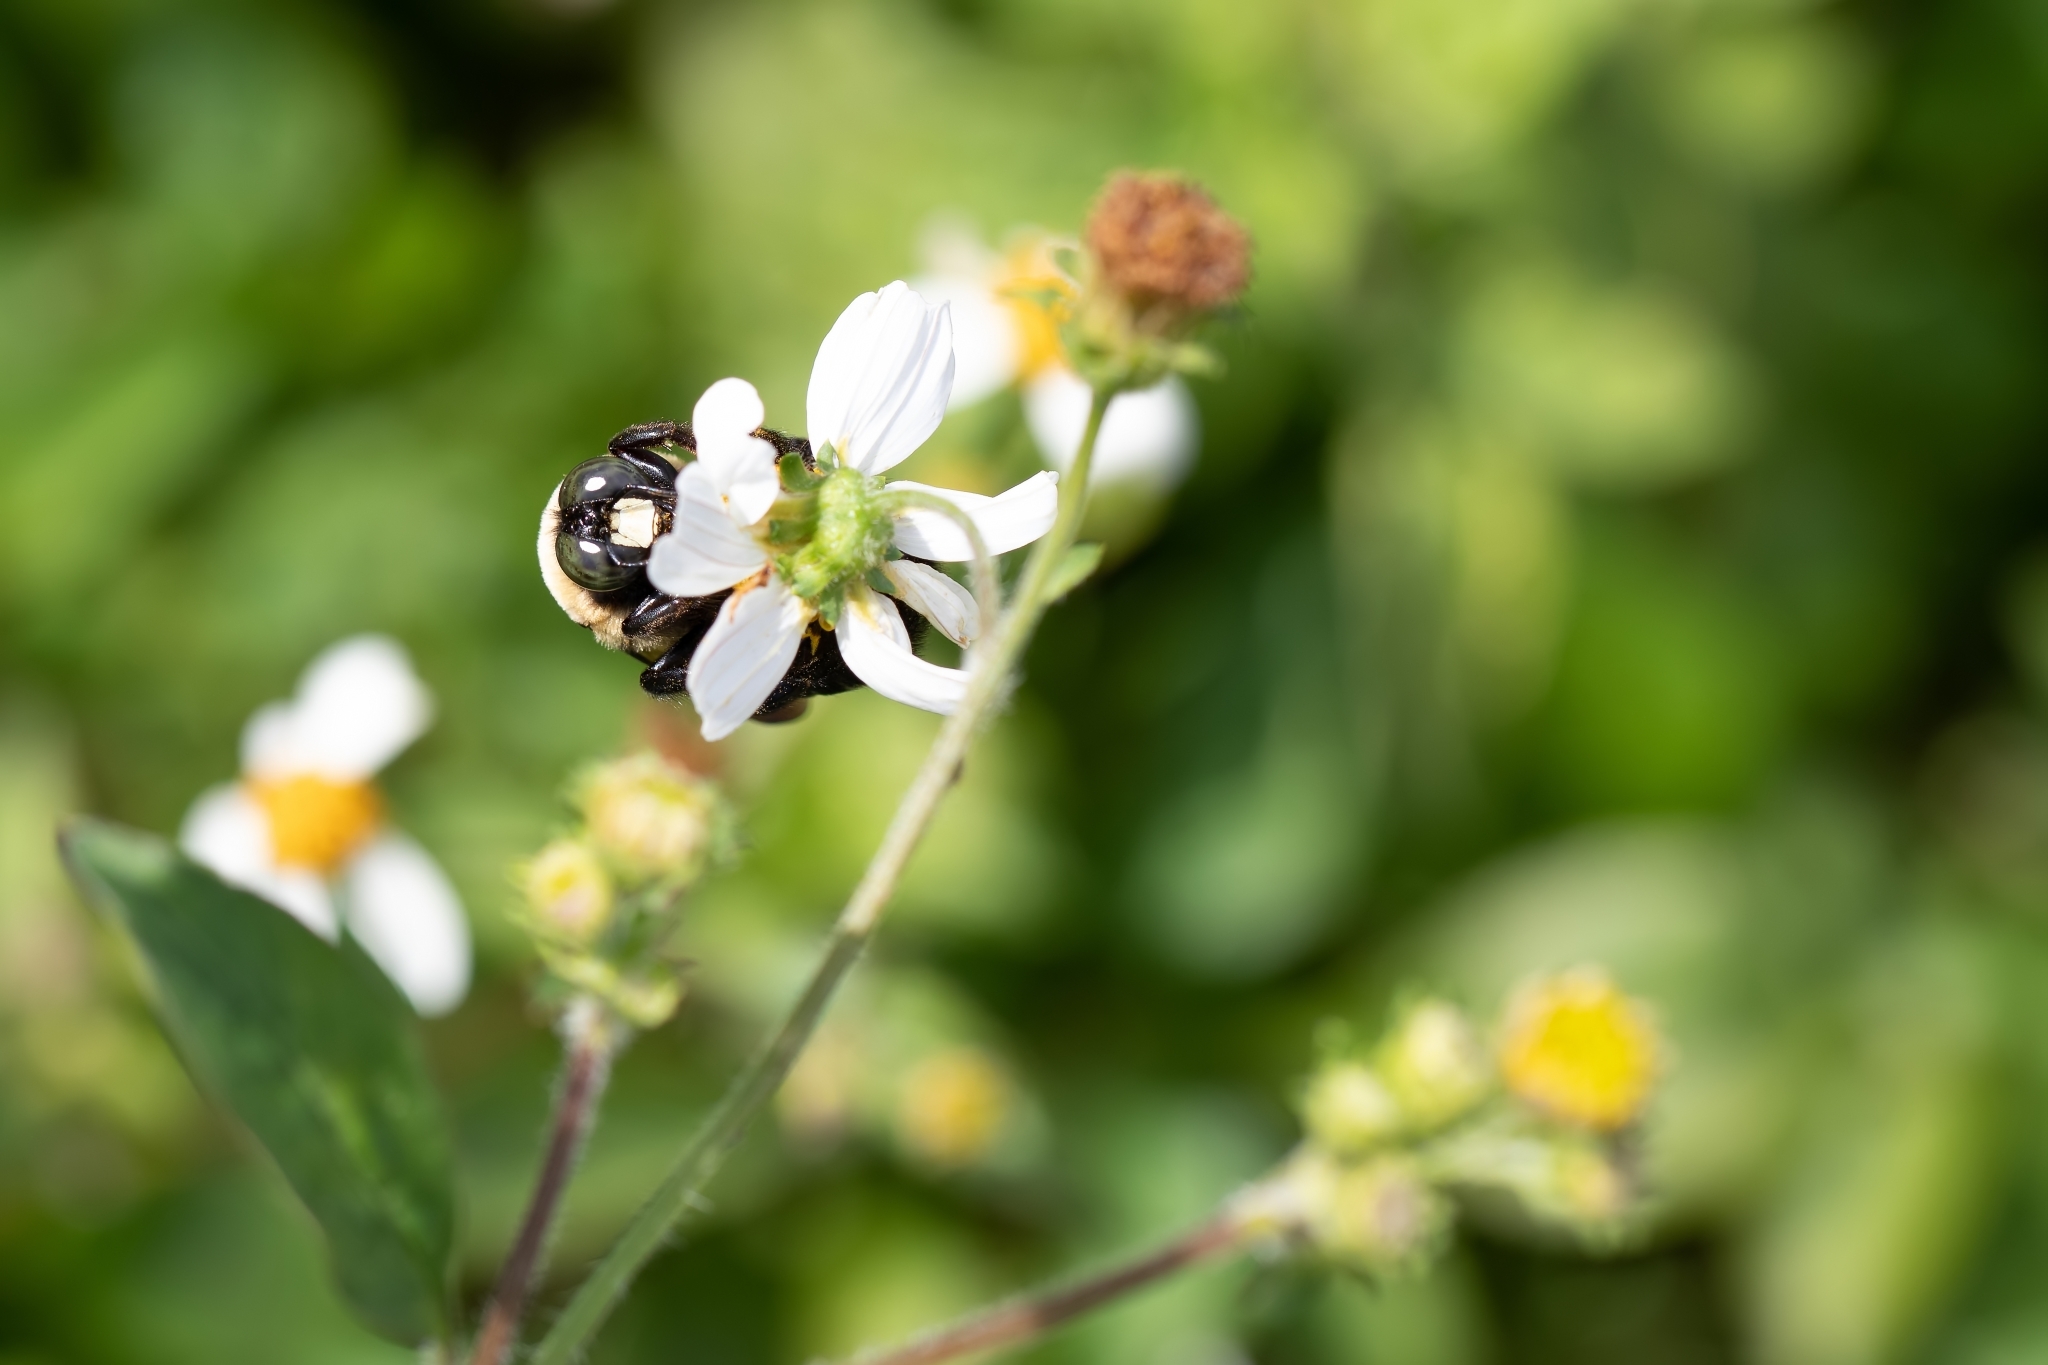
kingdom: Animalia
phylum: Arthropoda
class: Insecta
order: Hymenoptera
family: Apidae
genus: Xylocopa
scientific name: Xylocopa virginica
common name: Carpenter bee
